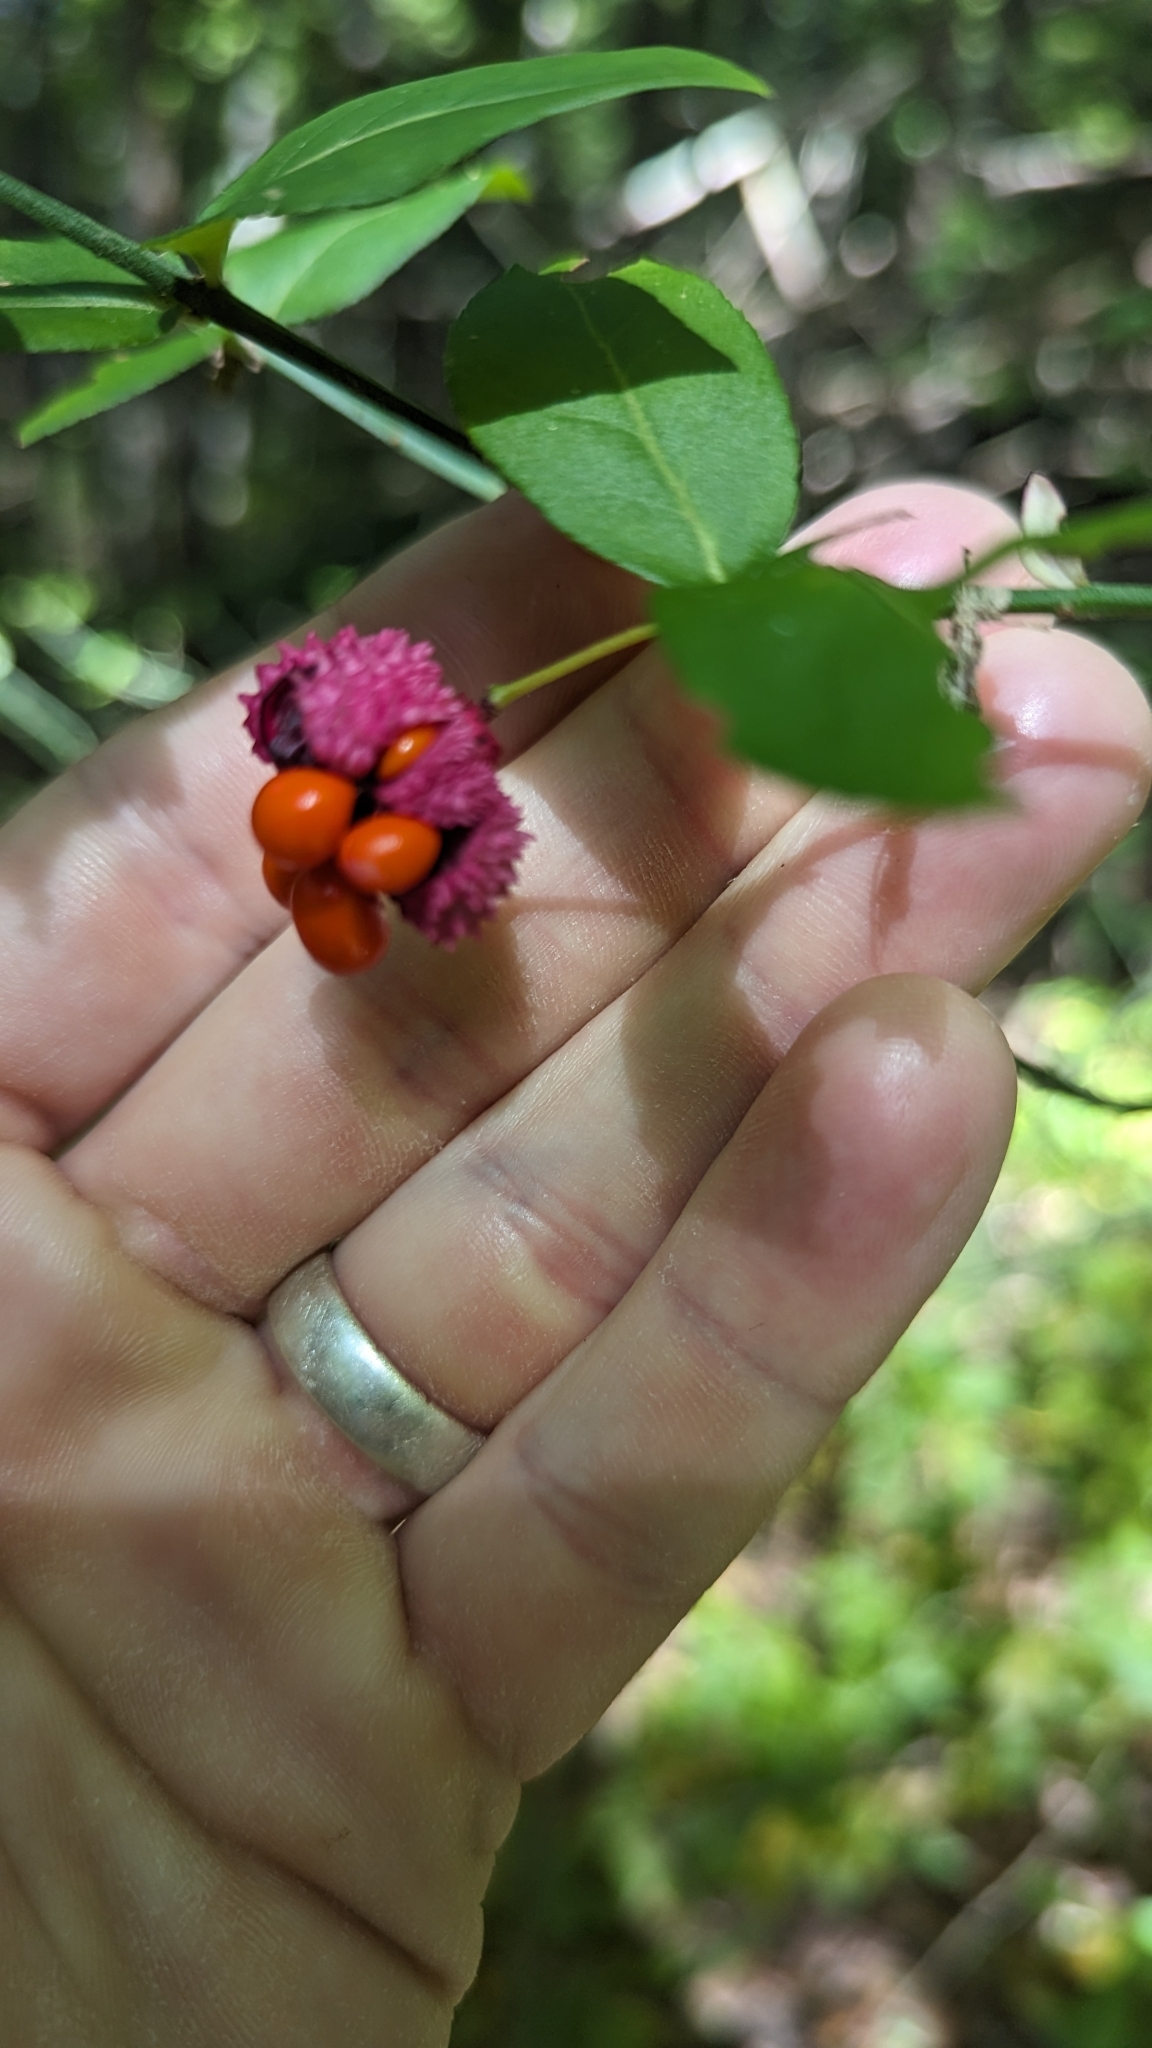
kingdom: Plantae
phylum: Tracheophyta
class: Magnoliopsida
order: Celastrales
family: Celastraceae
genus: Euonymus
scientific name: Euonymus americanus
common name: Bursting-heart
